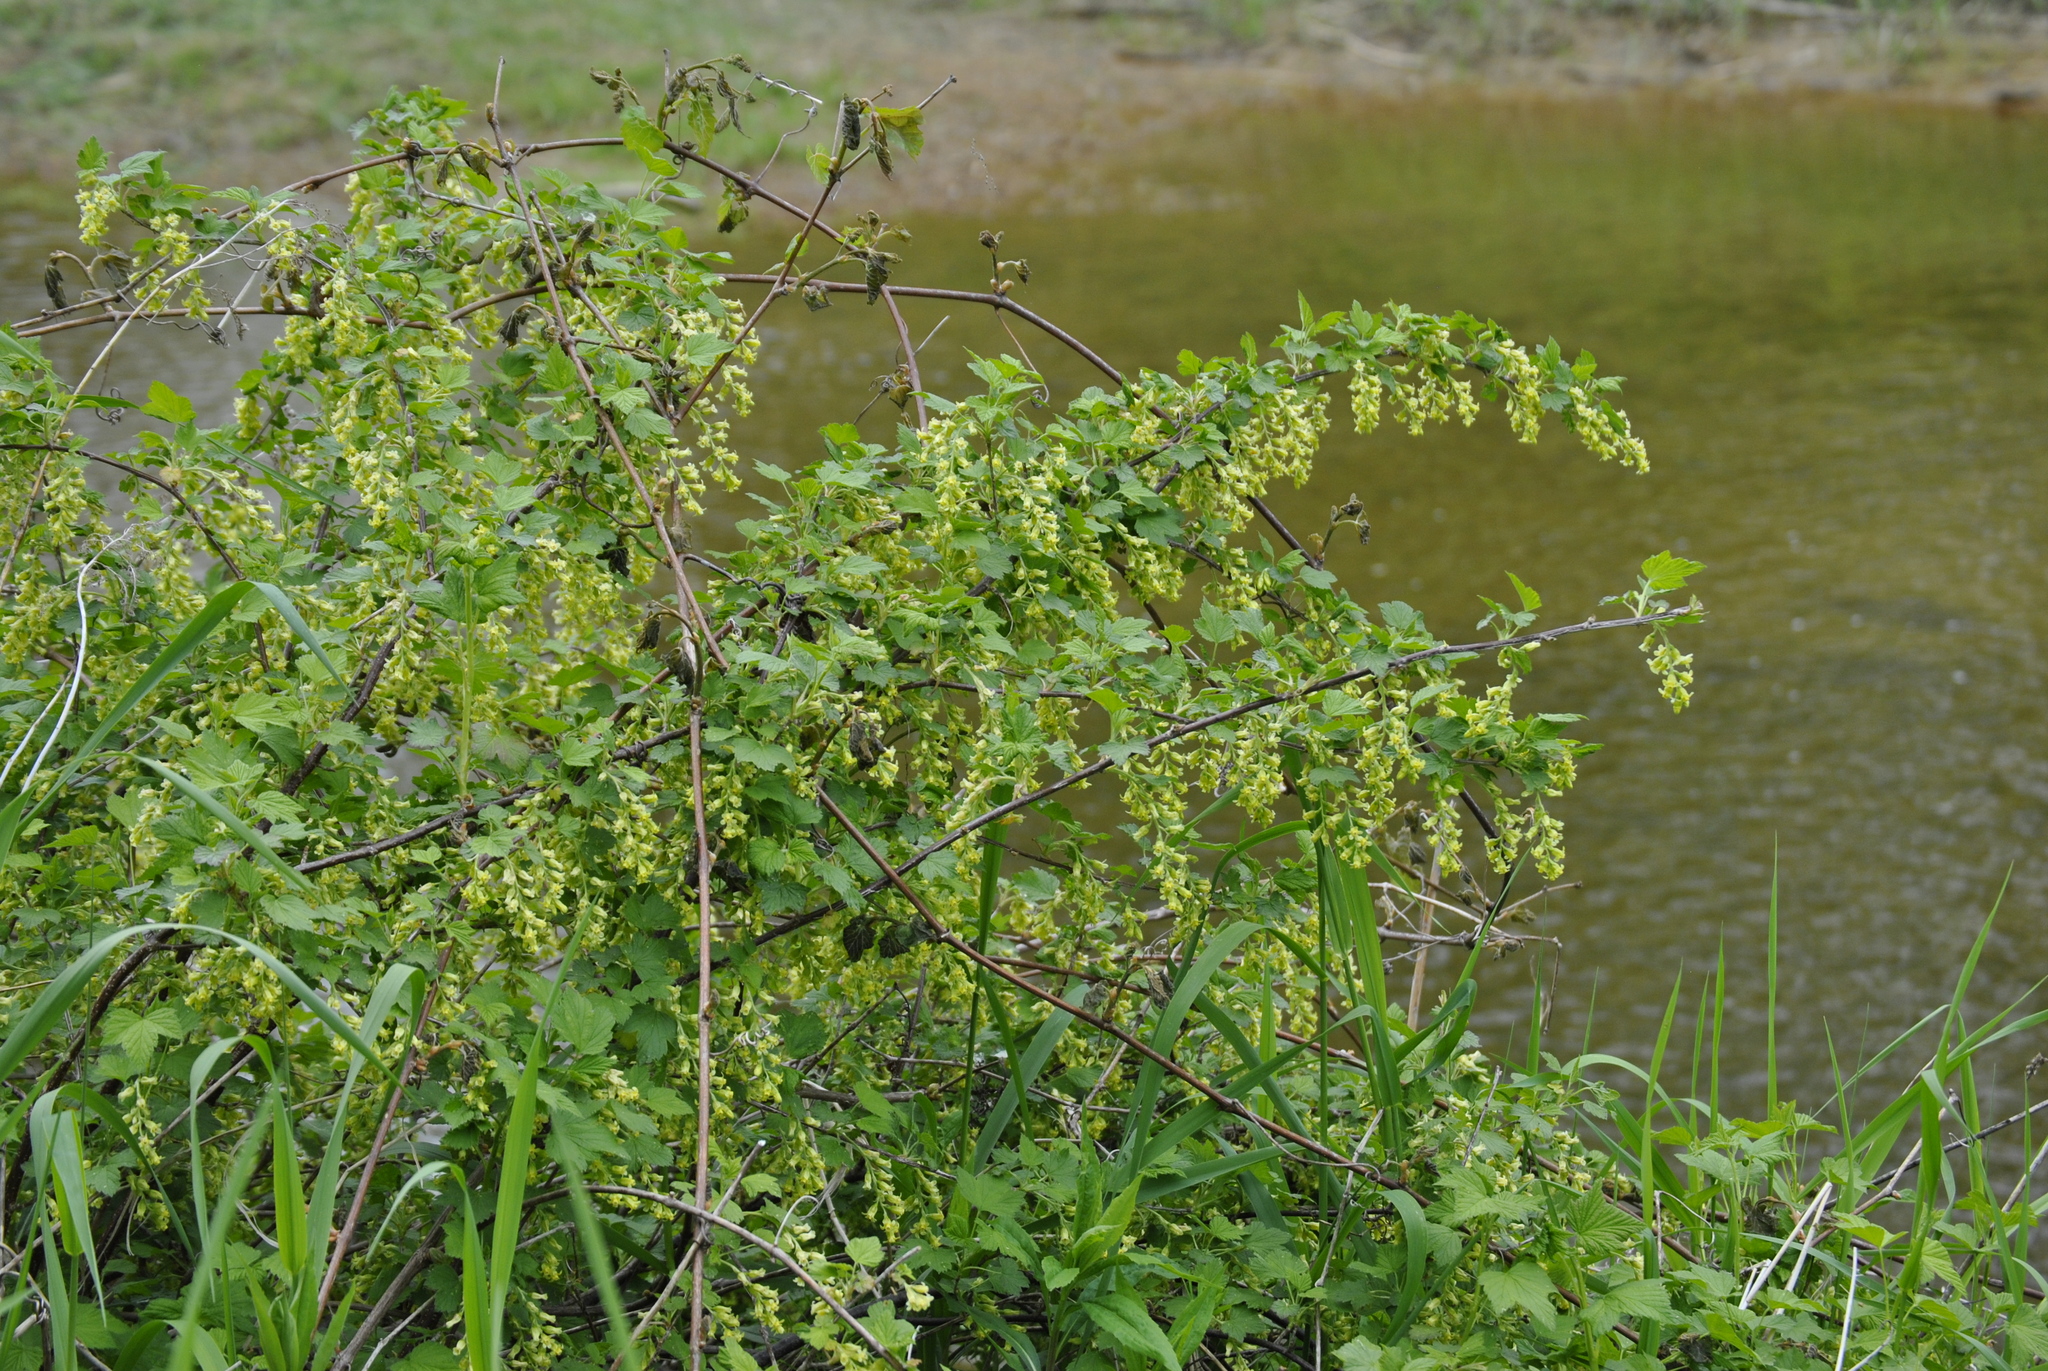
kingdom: Plantae
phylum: Tracheophyta
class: Magnoliopsida
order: Saxifragales
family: Grossulariaceae
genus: Ribes
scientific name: Ribes americanum
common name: American black currant
